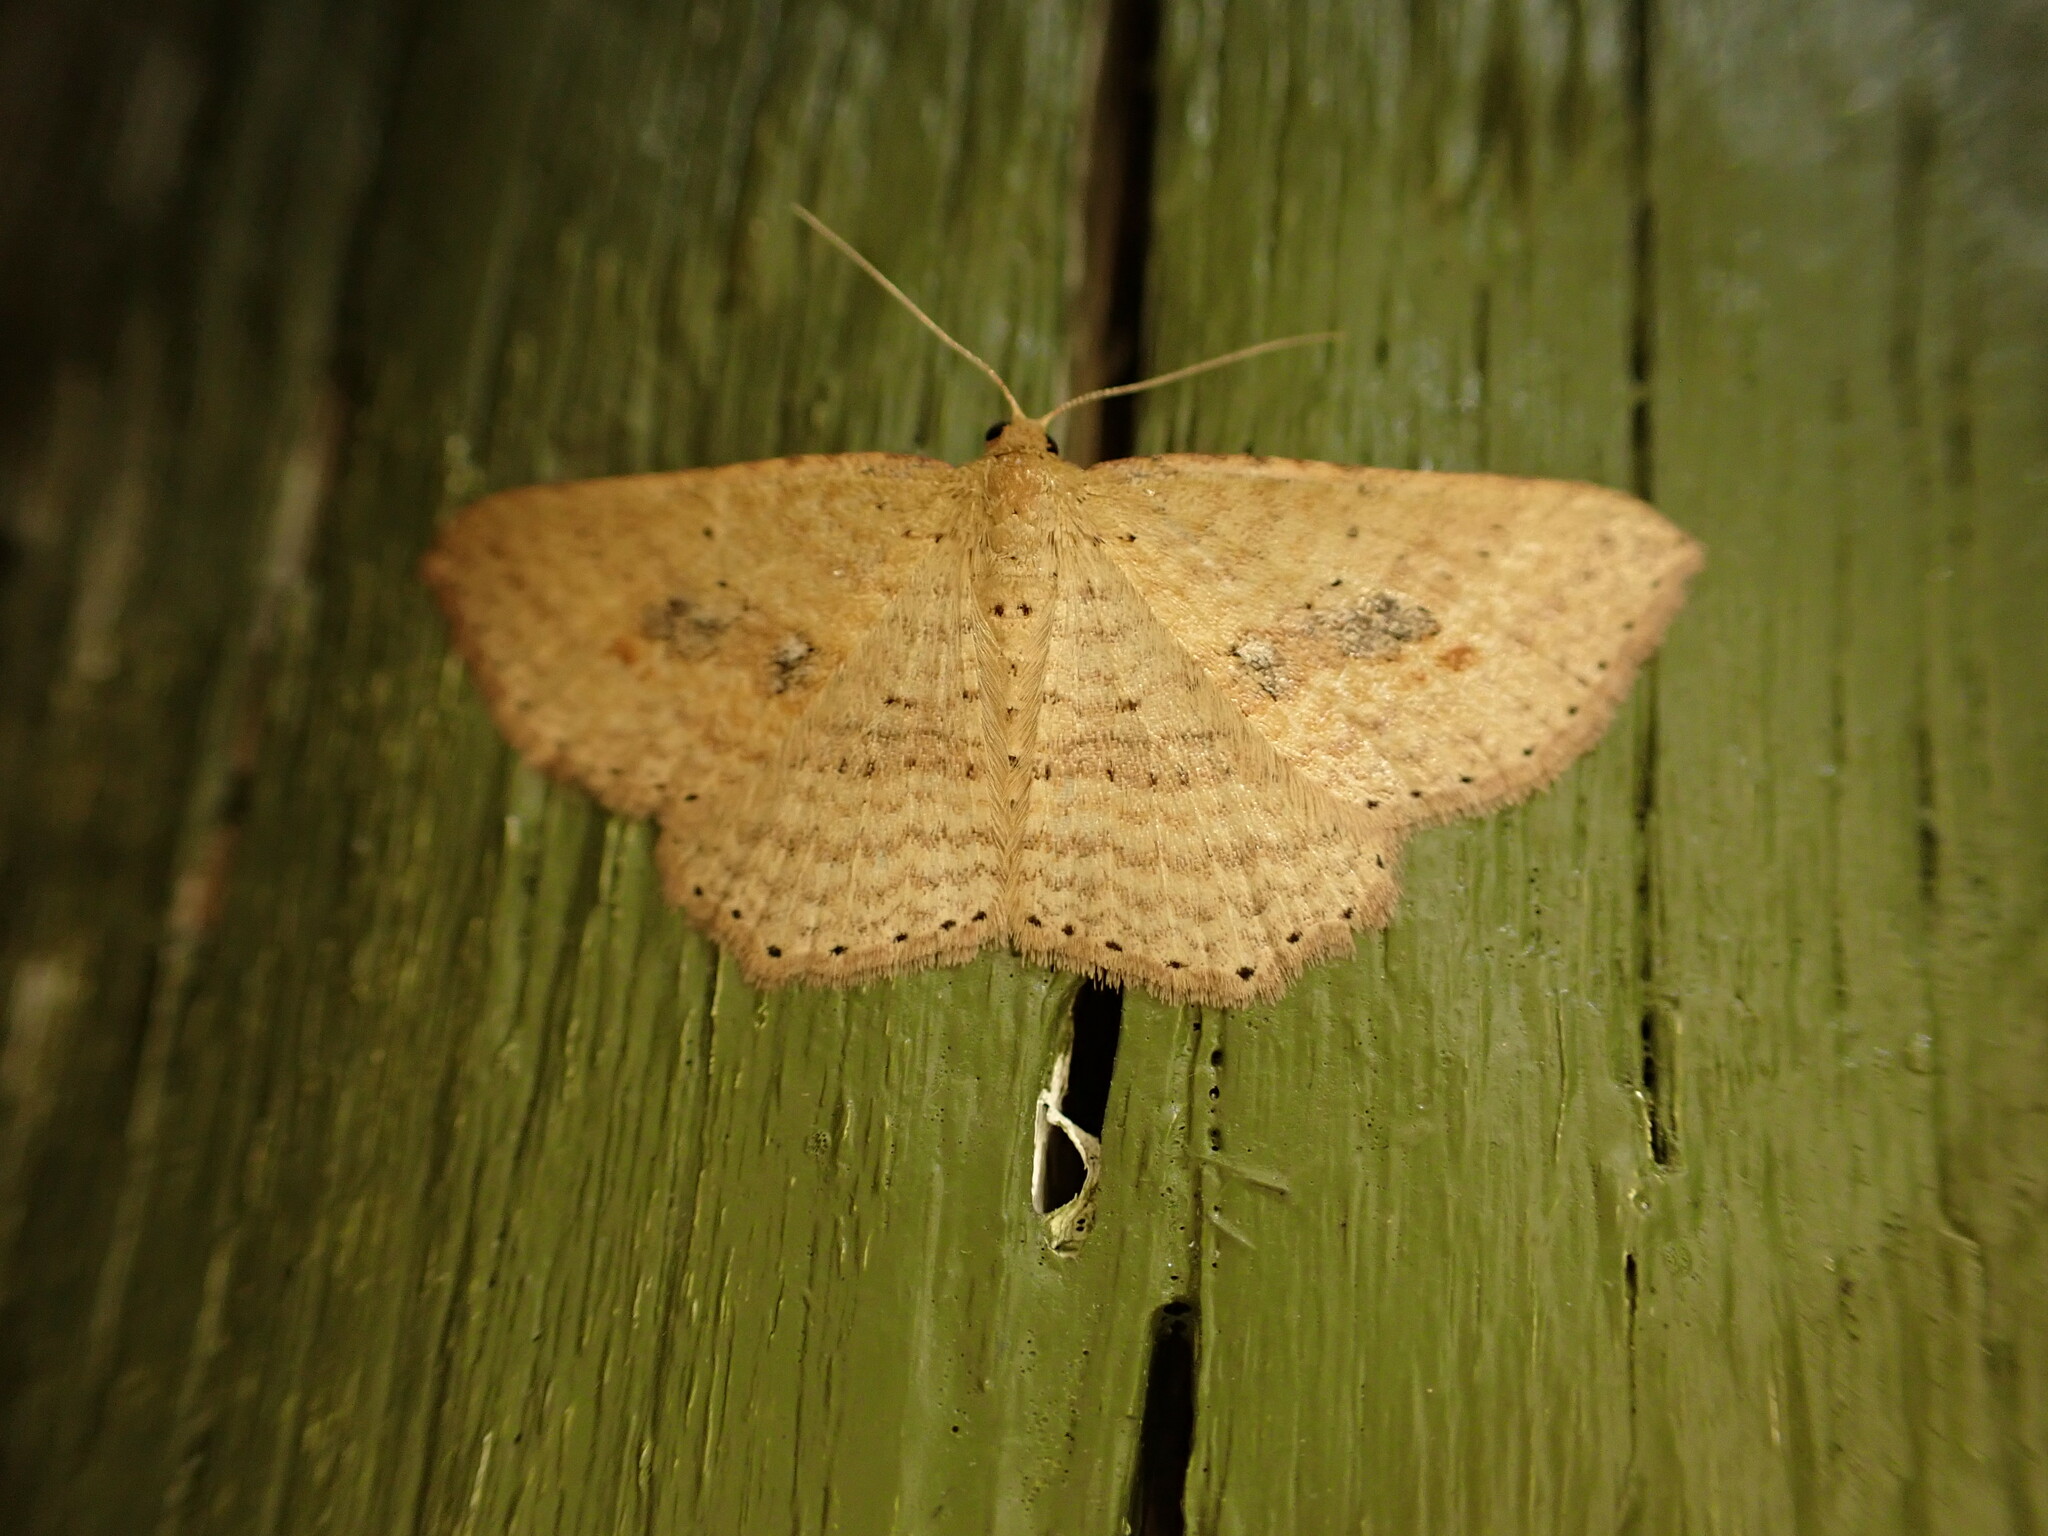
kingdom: Animalia
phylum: Arthropoda
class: Insecta
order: Lepidoptera
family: Geometridae
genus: Epicyme
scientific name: Epicyme rubropunctaria
